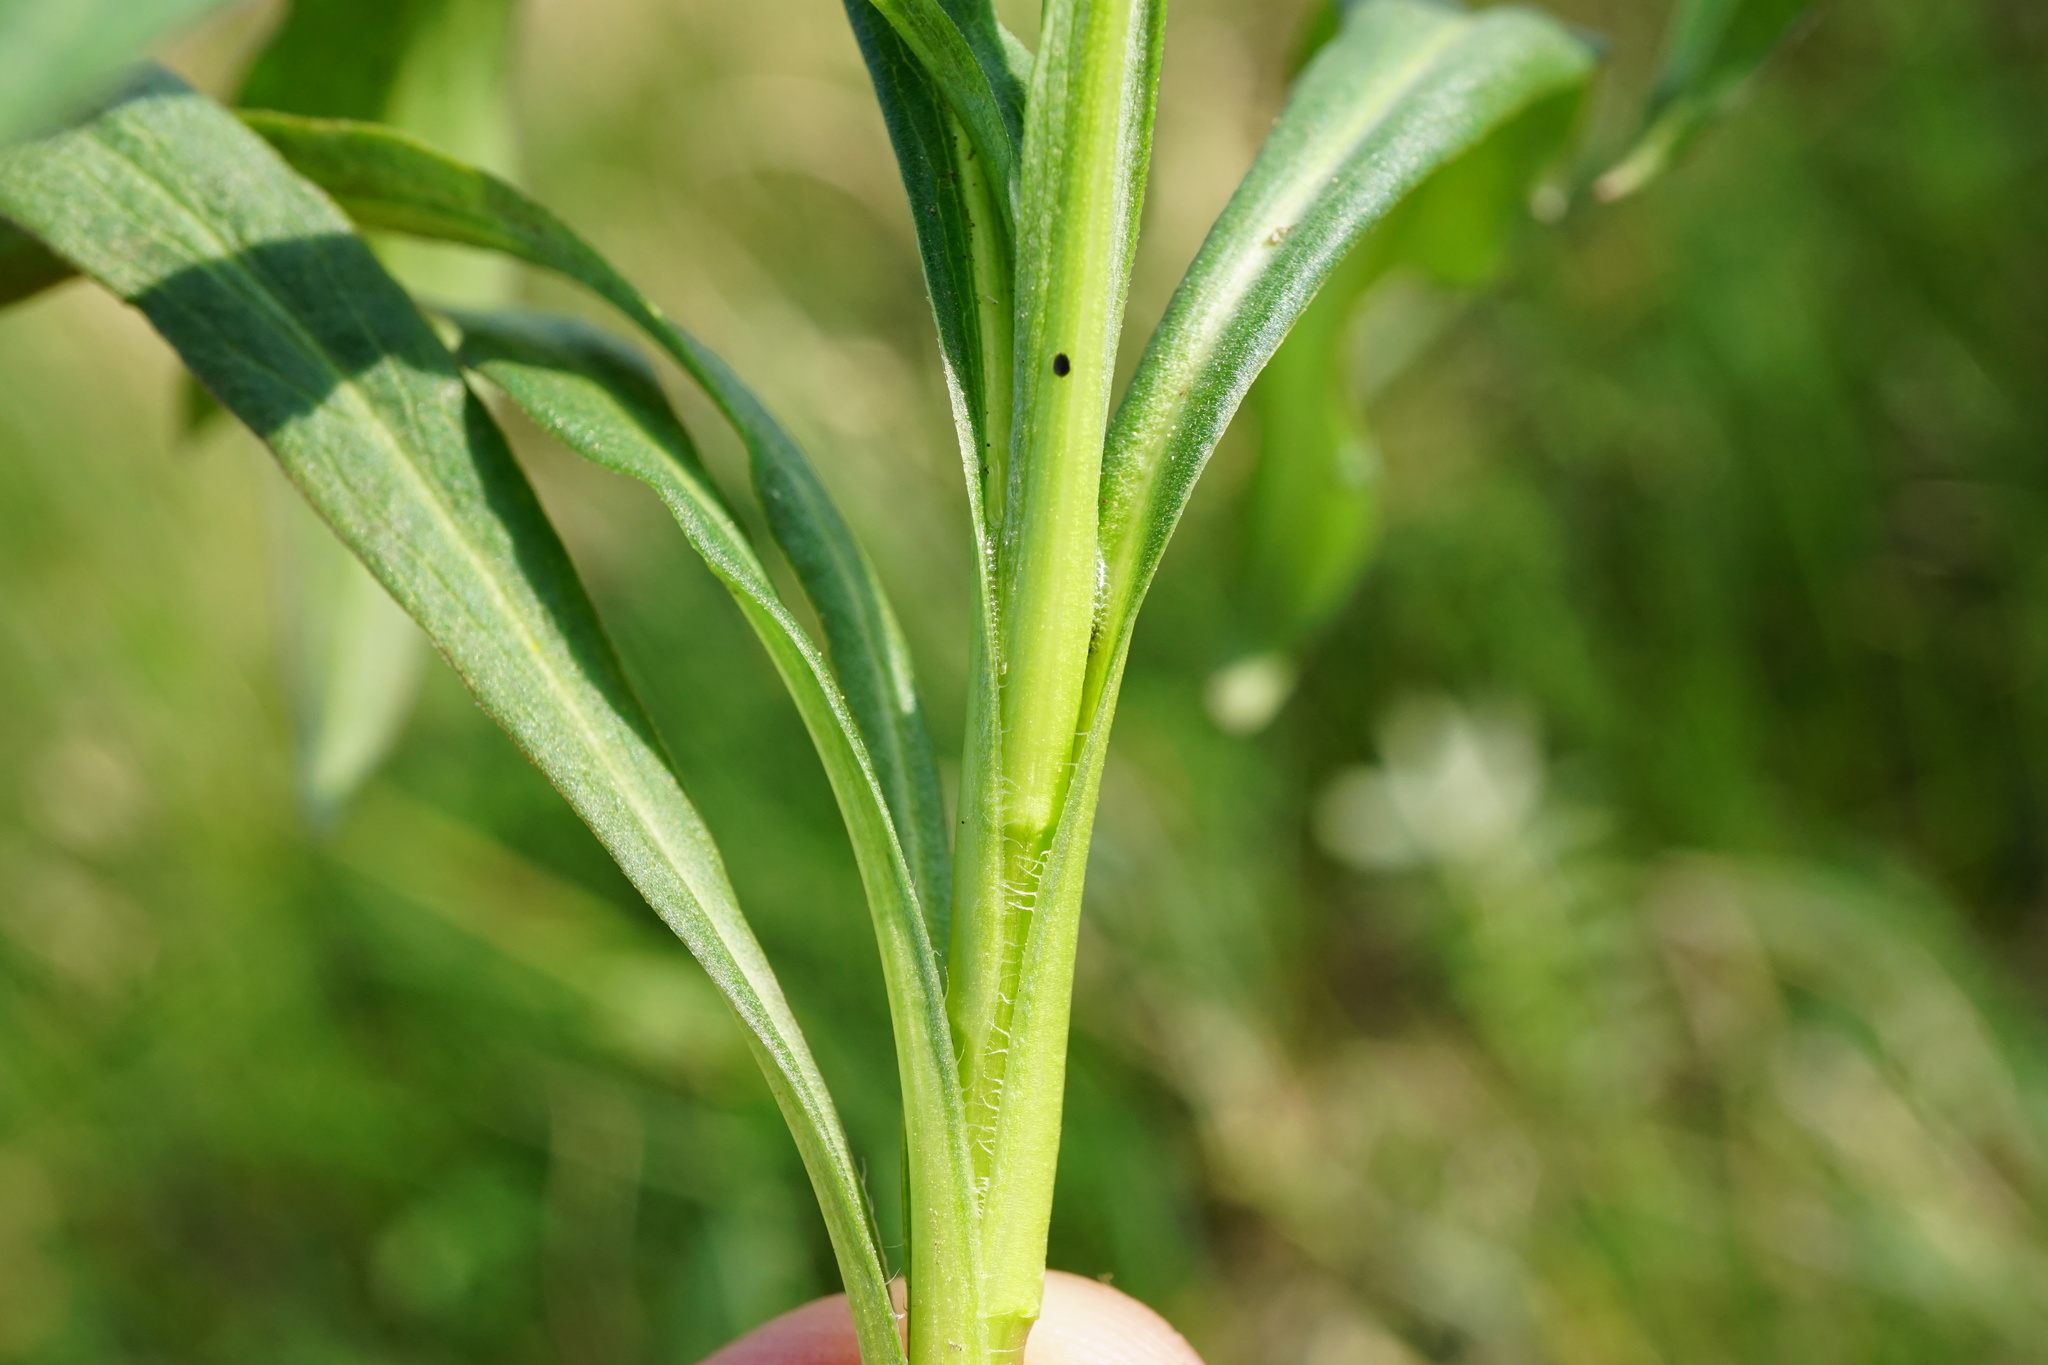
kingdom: Plantae
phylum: Tracheophyta
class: Magnoliopsida
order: Asterales
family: Asteraceae
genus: Symphyotrichum
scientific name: Symphyotrichum lanceolatum
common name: Panicled aster
